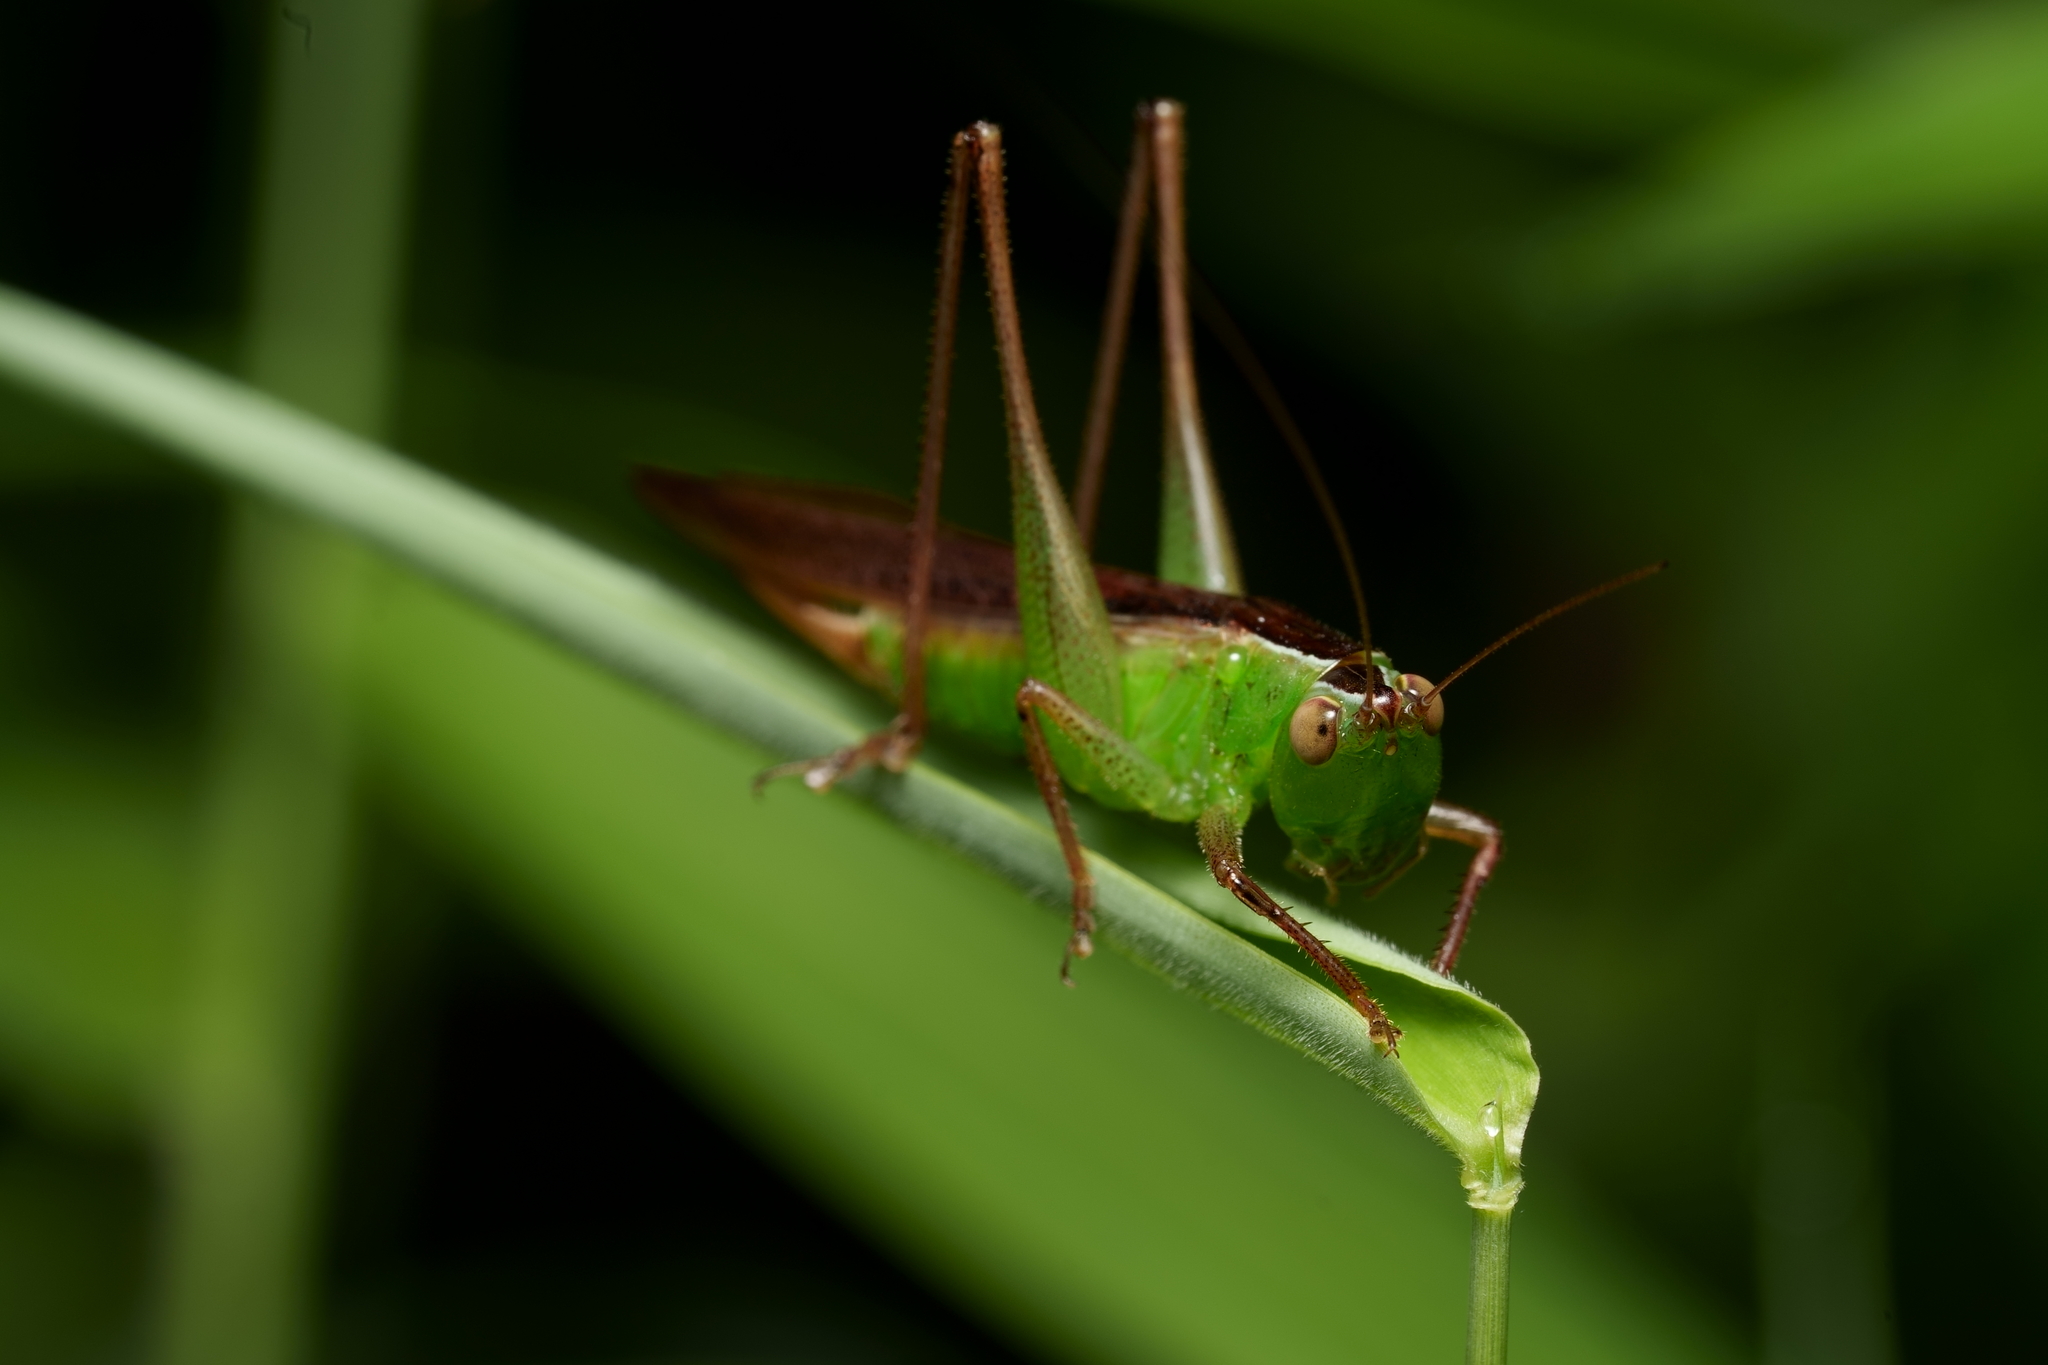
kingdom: Animalia
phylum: Arthropoda
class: Insecta
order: Orthoptera
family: Tettigoniidae
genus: Conocephalus
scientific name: Conocephalus maculatus
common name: Spotted meadow katydid
